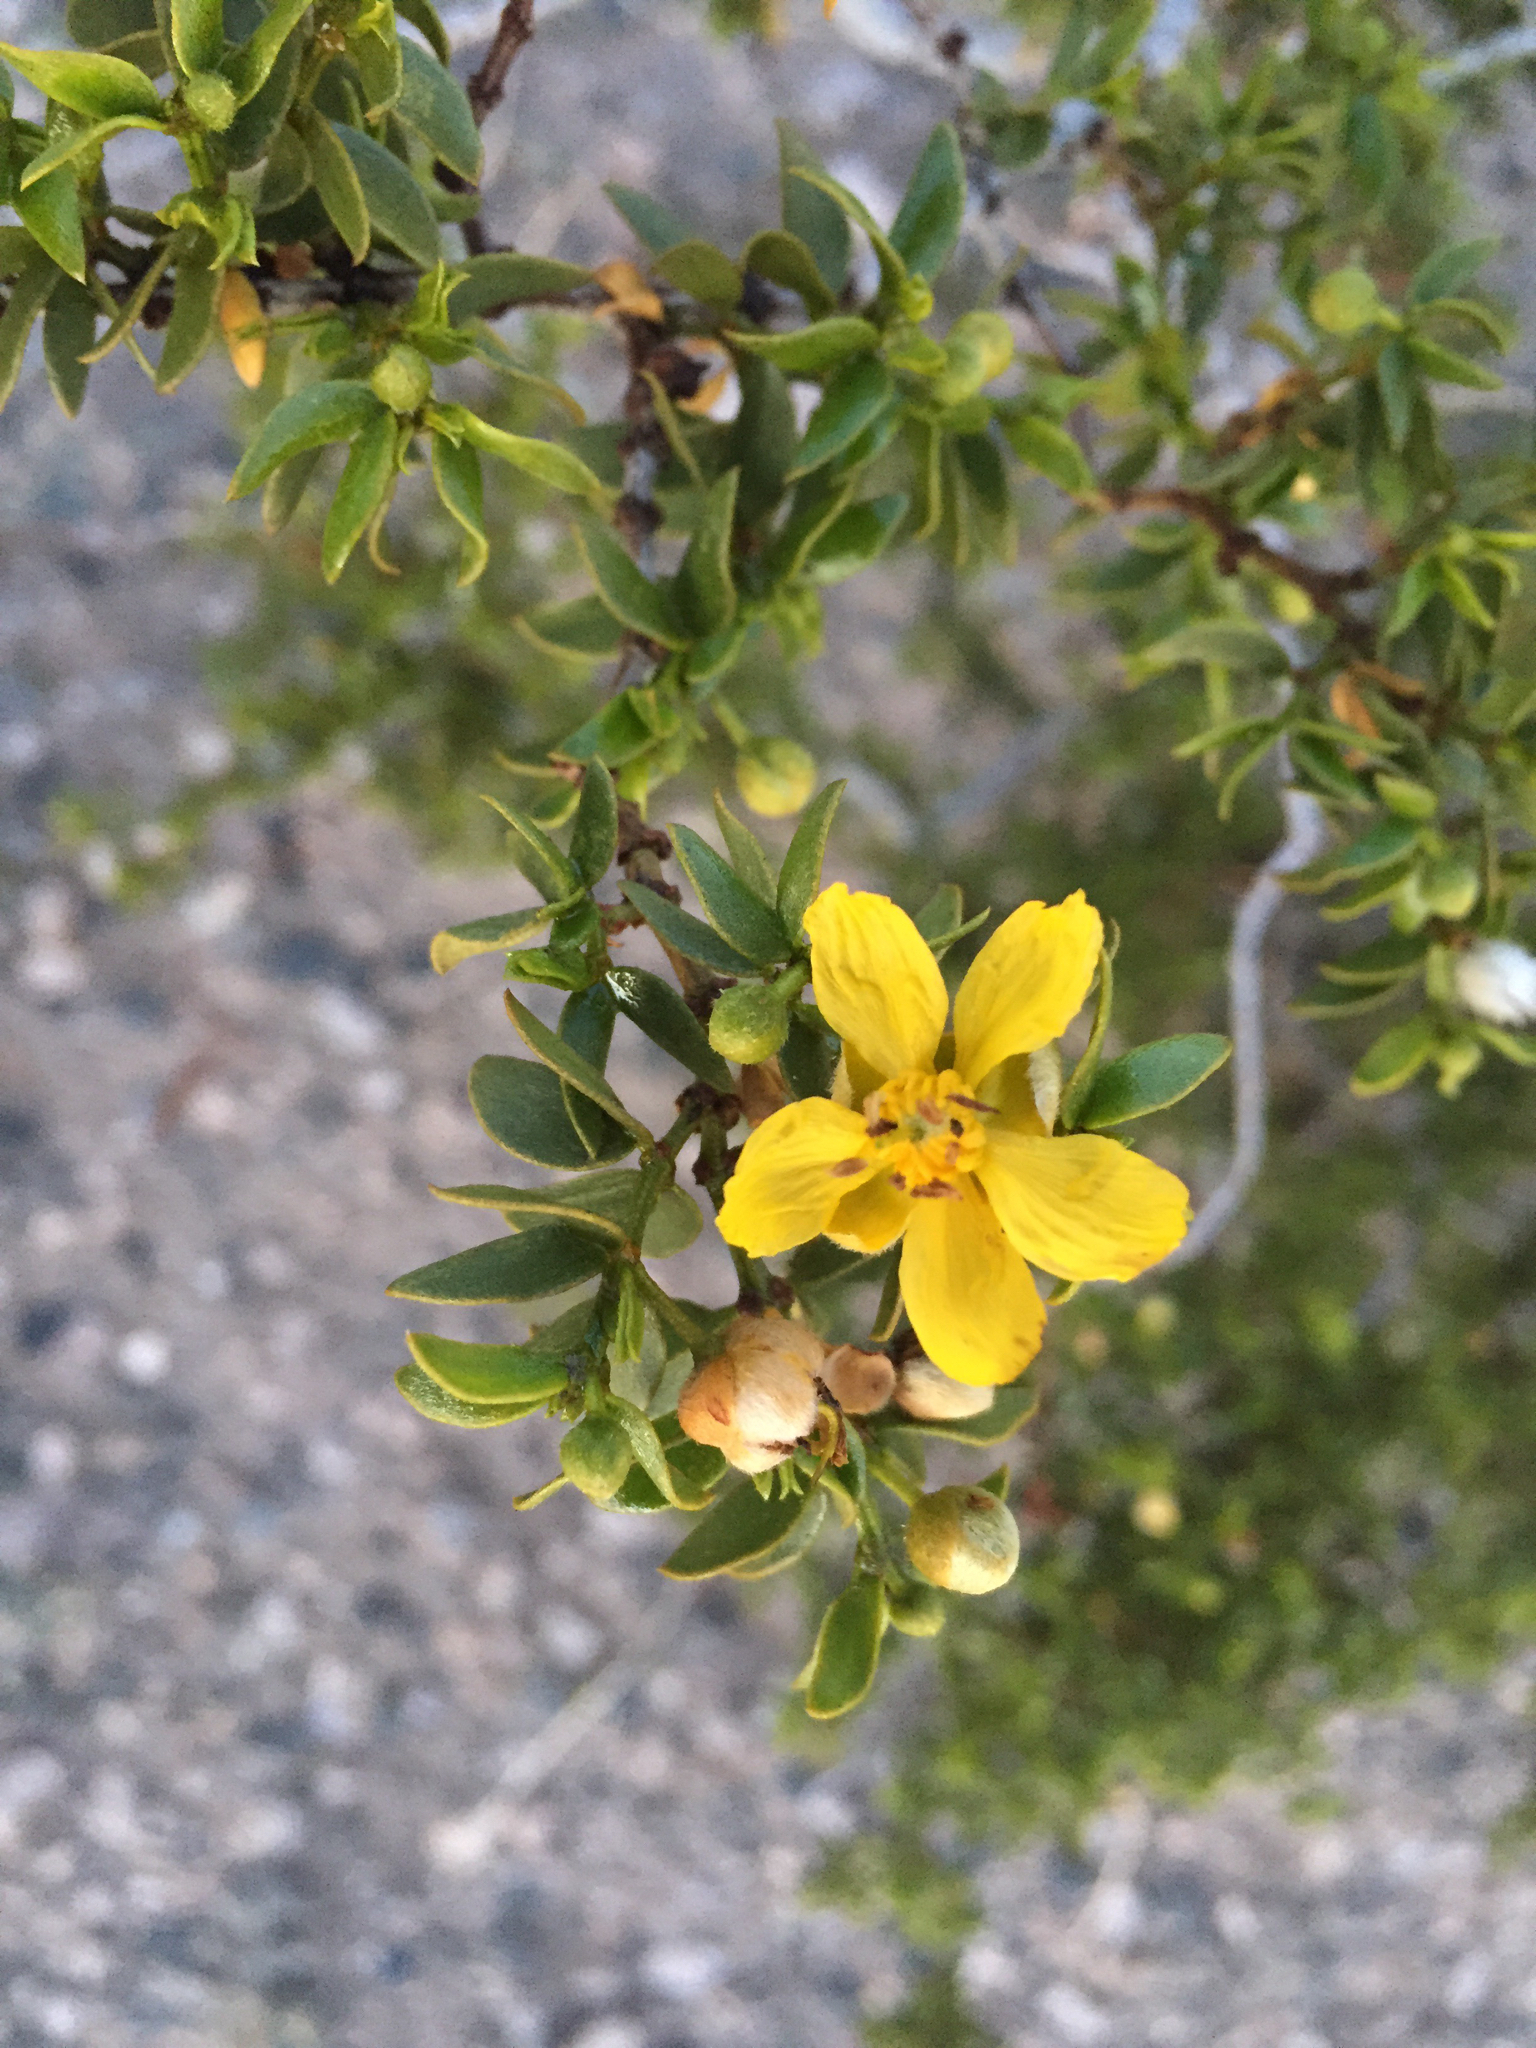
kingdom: Plantae
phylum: Tracheophyta
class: Magnoliopsida
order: Zygophyllales
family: Zygophyllaceae
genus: Larrea
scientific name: Larrea tridentata
